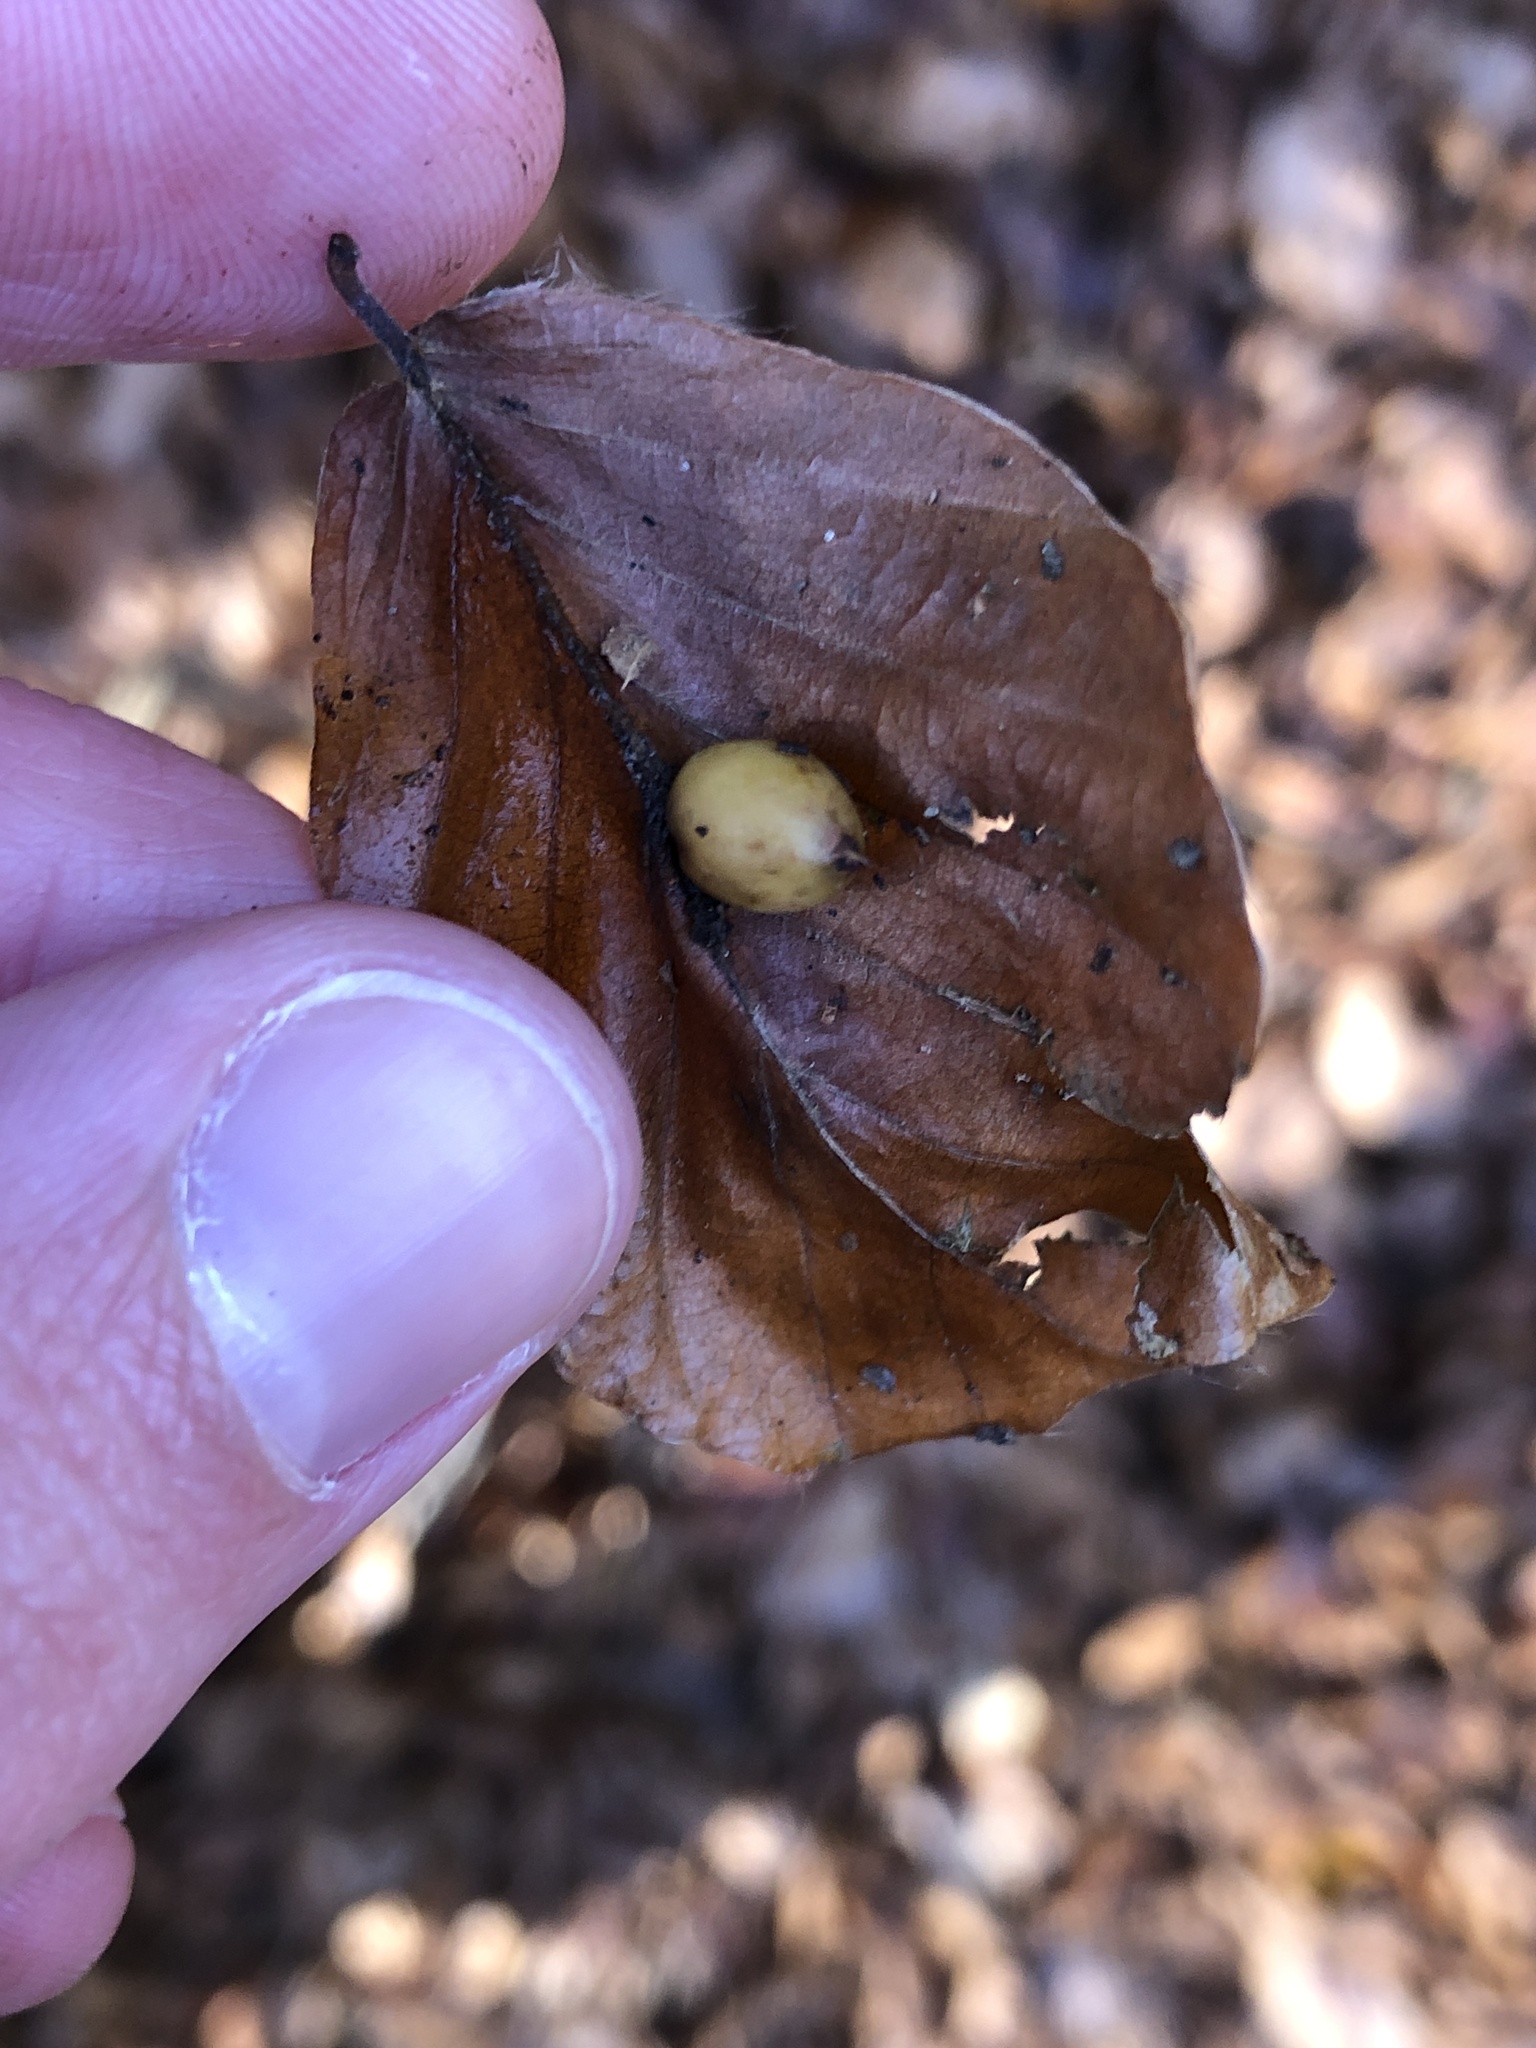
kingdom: Animalia
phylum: Arthropoda
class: Insecta
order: Diptera
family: Cecidomyiidae
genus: Mikiola
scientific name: Mikiola fagi
